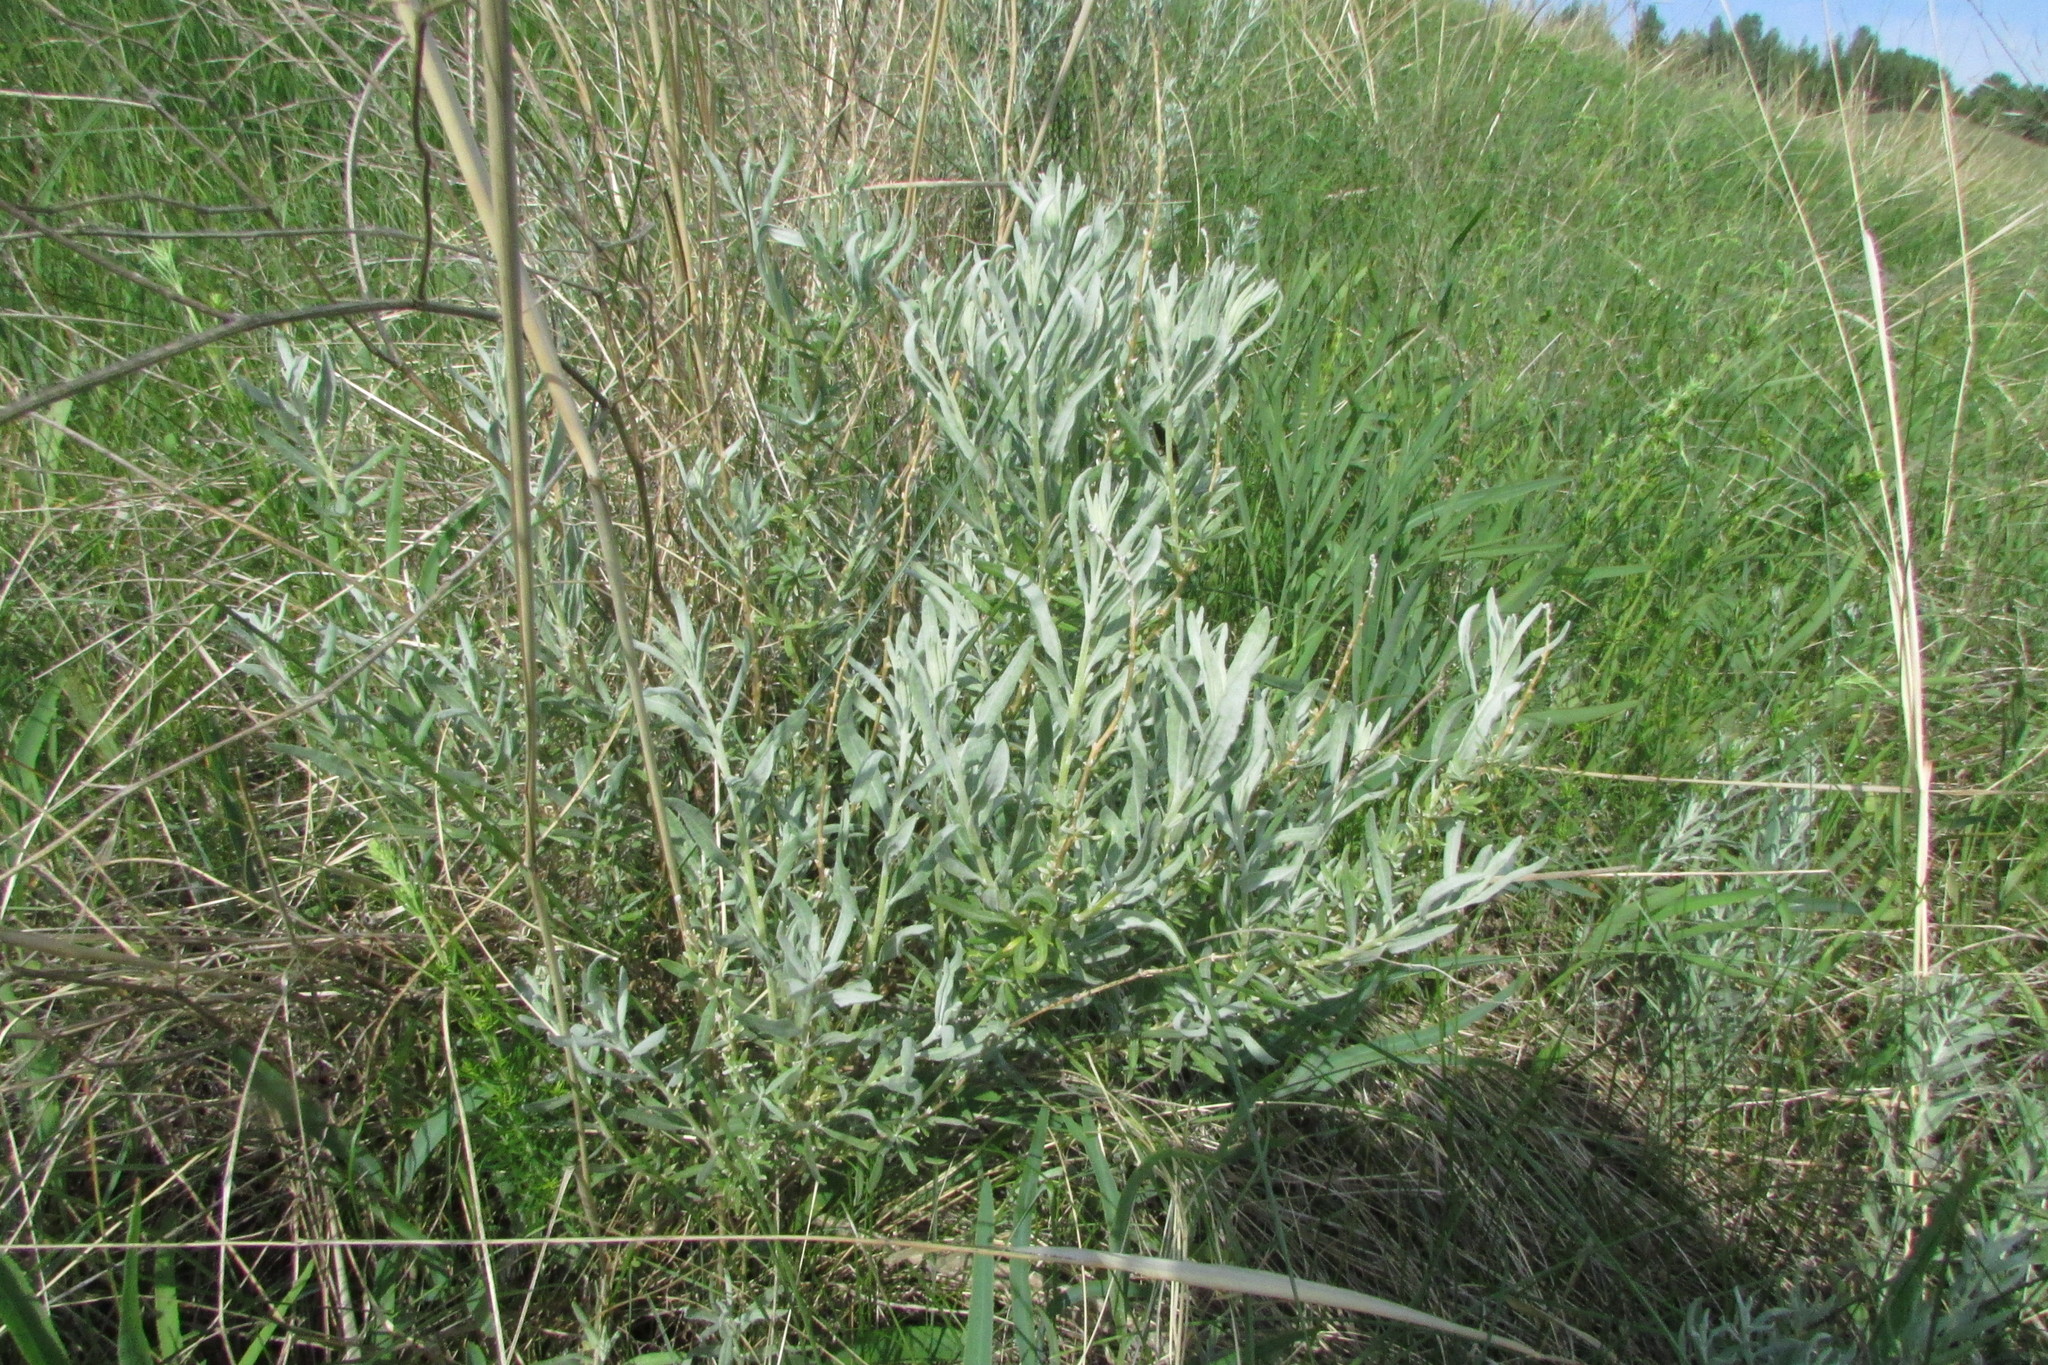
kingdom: Plantae
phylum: Tracheophyta
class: Magnoliopsida
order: Caryophyllales
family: Amaranthaceae
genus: Krascheninnikovia
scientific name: Krascheninnikovia ceratoides
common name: Pamirian winterfat
